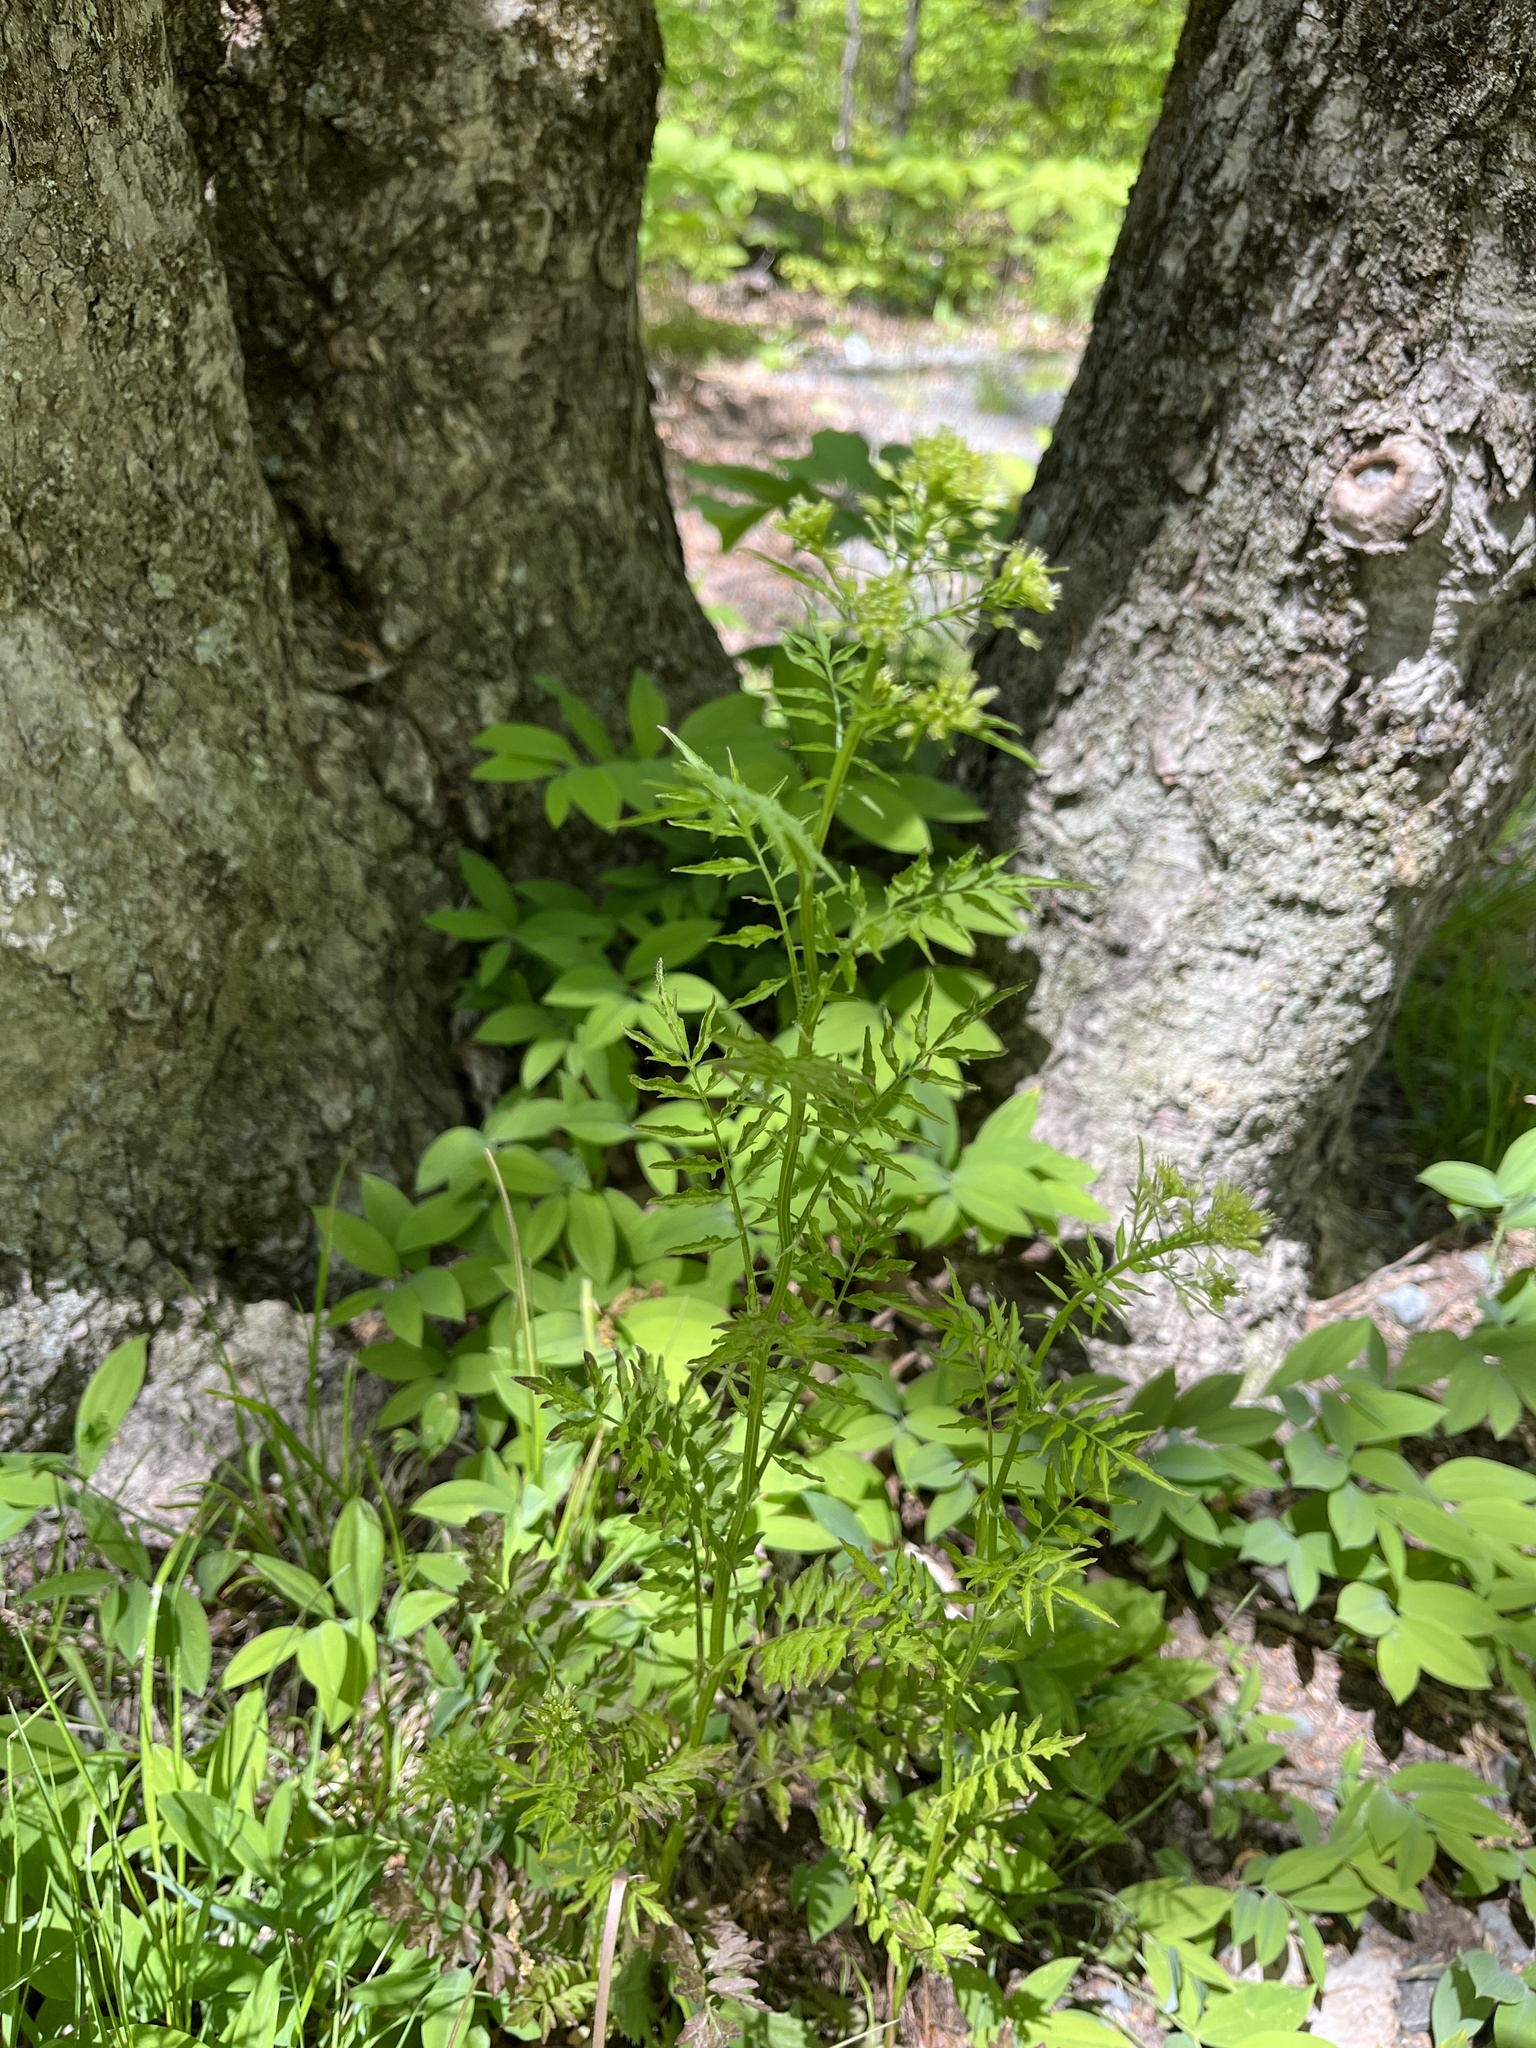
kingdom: Plantae
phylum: Tracheophyta
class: Magnoliopsida
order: Brassicales
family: Brassicaceae
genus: Cardamine
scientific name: Cardamine impatiens
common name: Narrow-leaved bitter-cress
